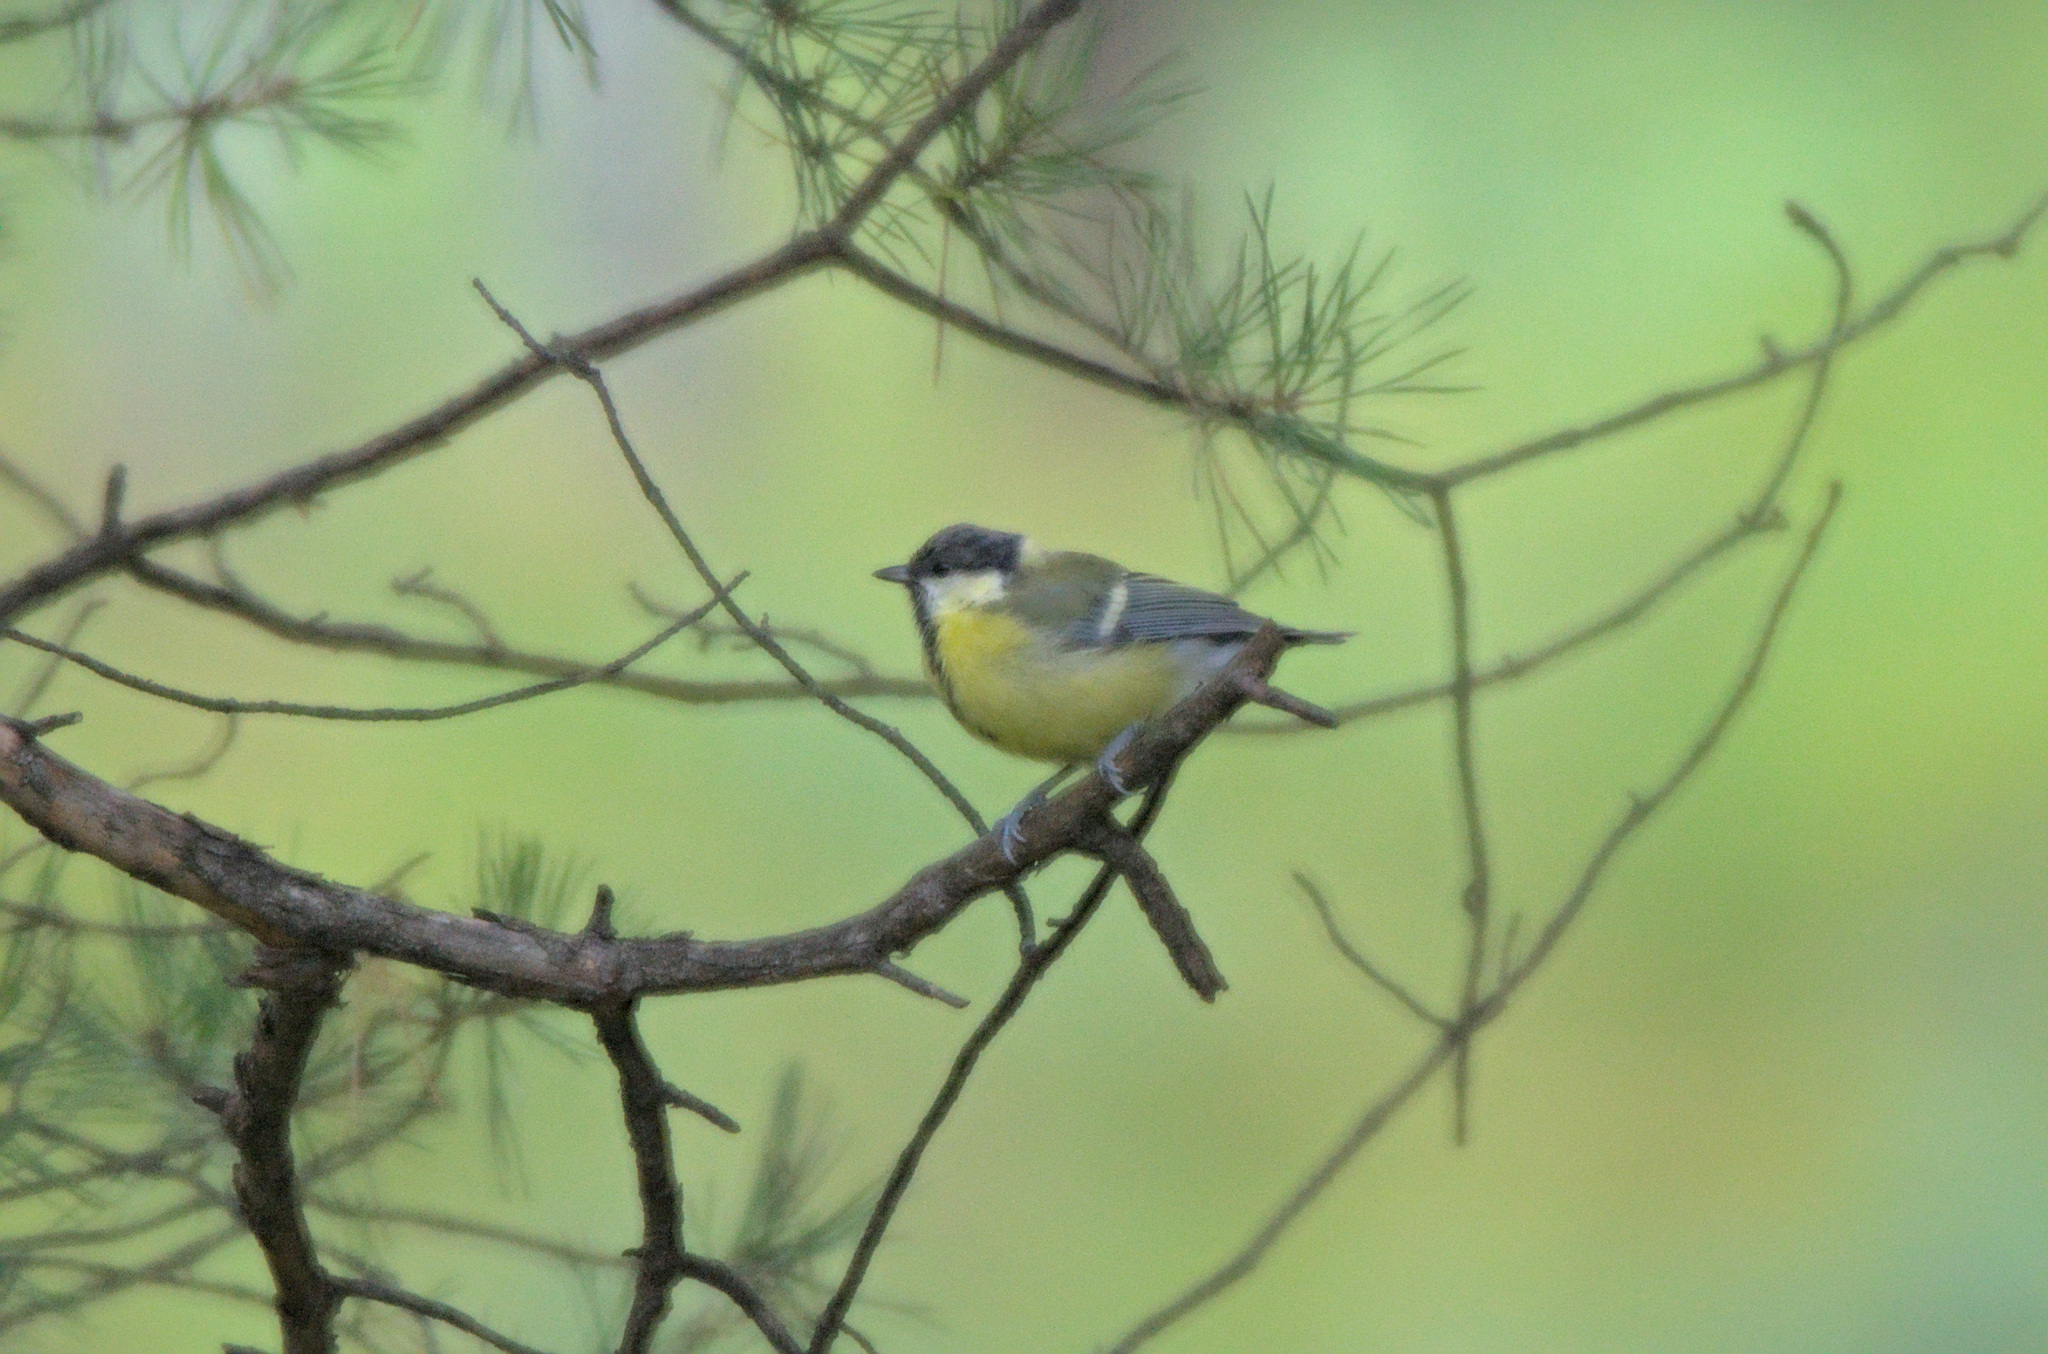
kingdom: Animalia
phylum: Chordata
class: Aves
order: Passeriformes
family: Paridae
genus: Parus
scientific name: Parus major
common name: Great tit
